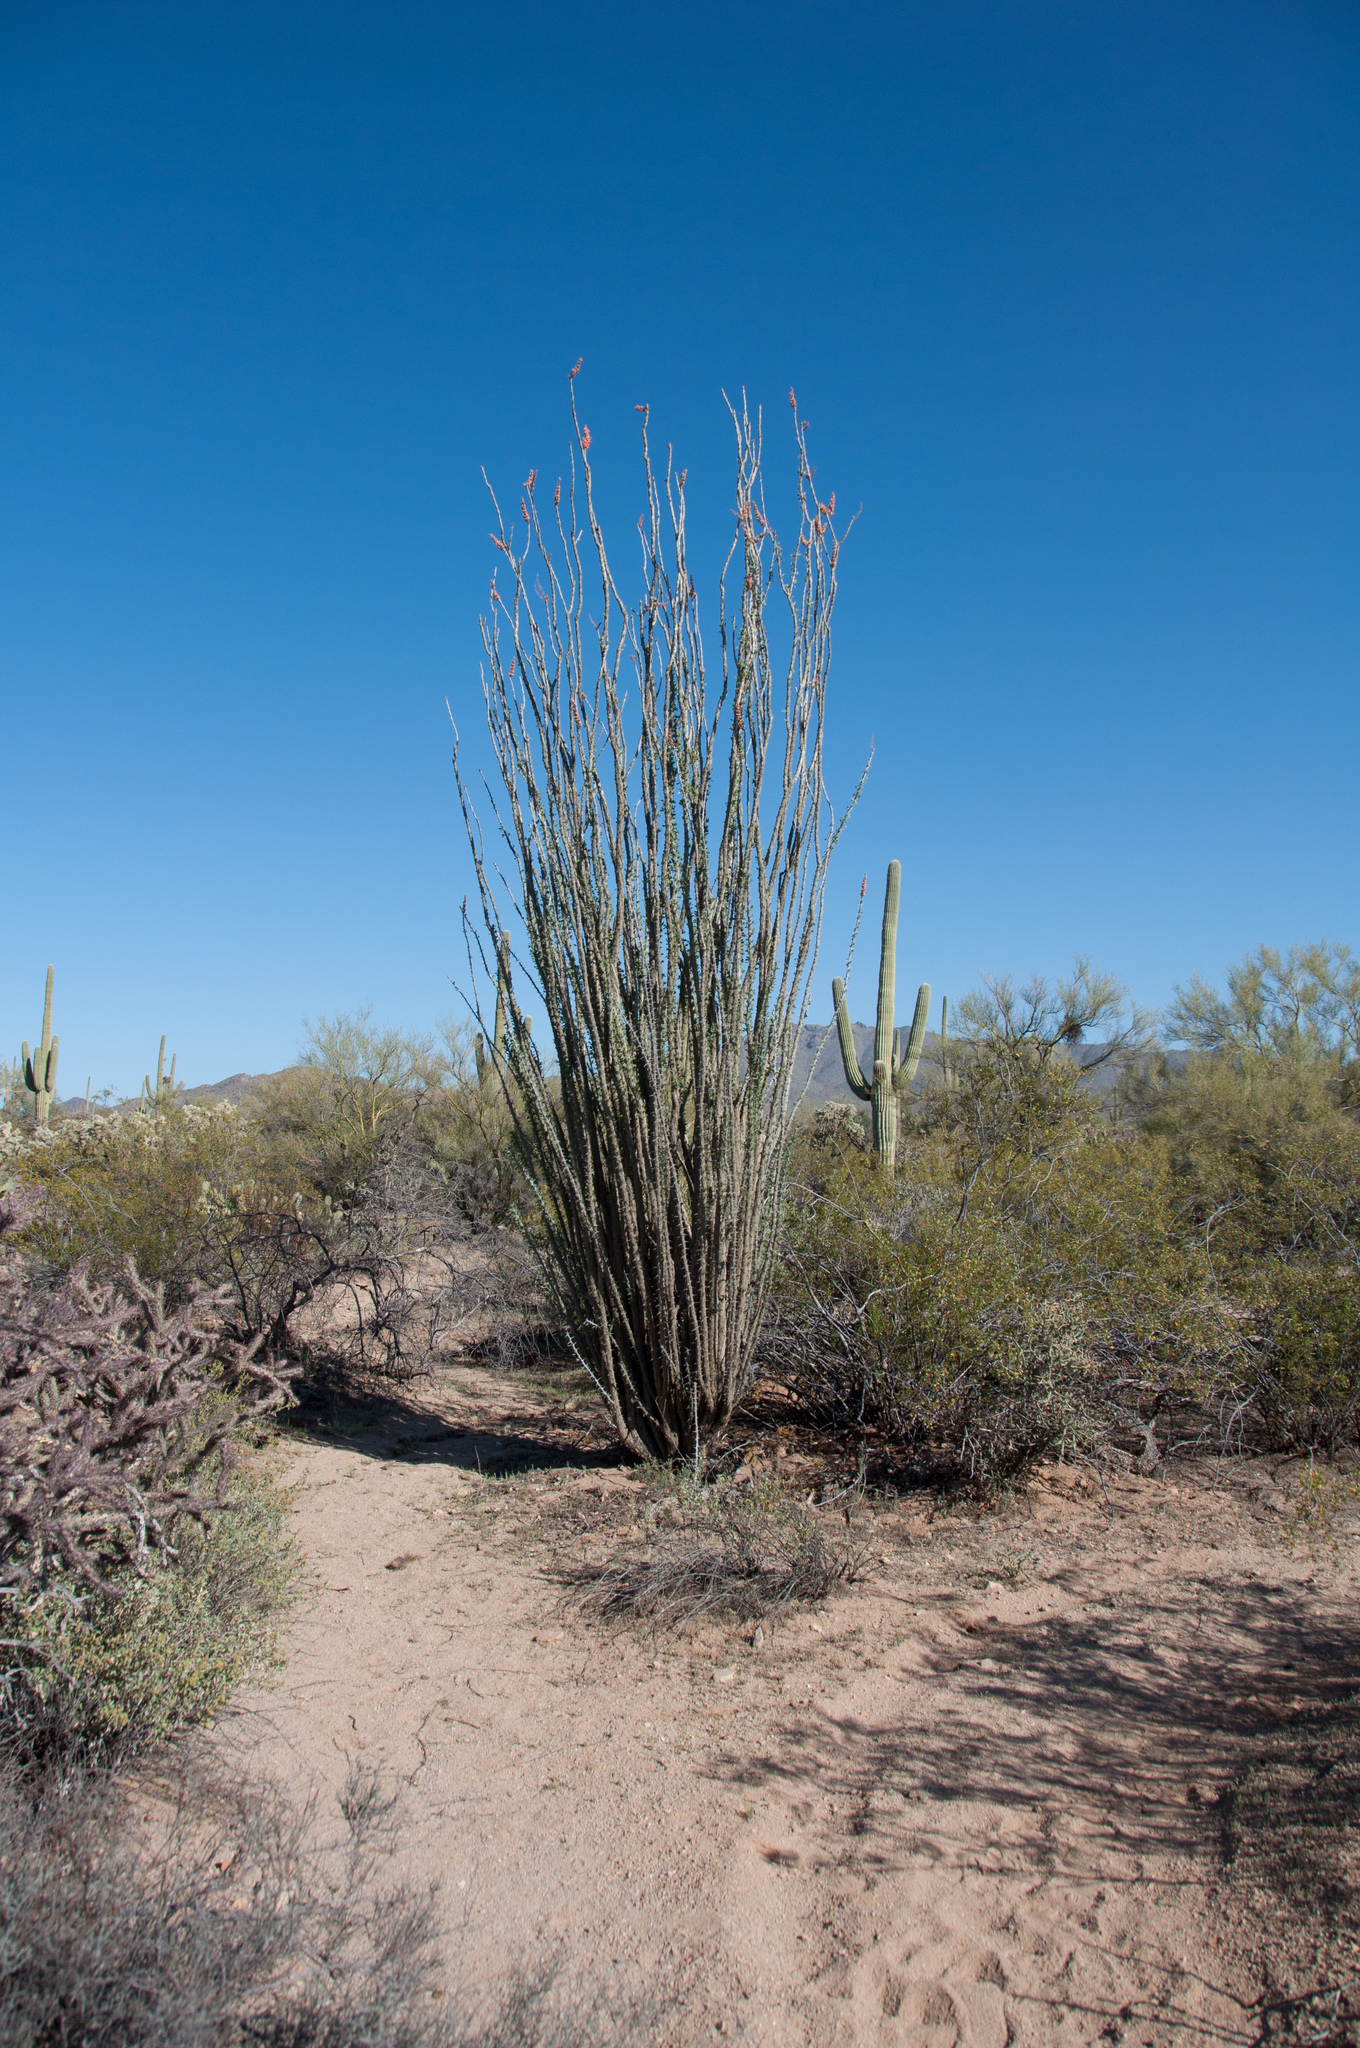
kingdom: Plantae
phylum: Tracheophyta
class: Magnoliopsida
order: Ericales
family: Fouquieriaceae
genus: Fouquieria
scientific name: Fouquieria splendens
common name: Vine-cactus
